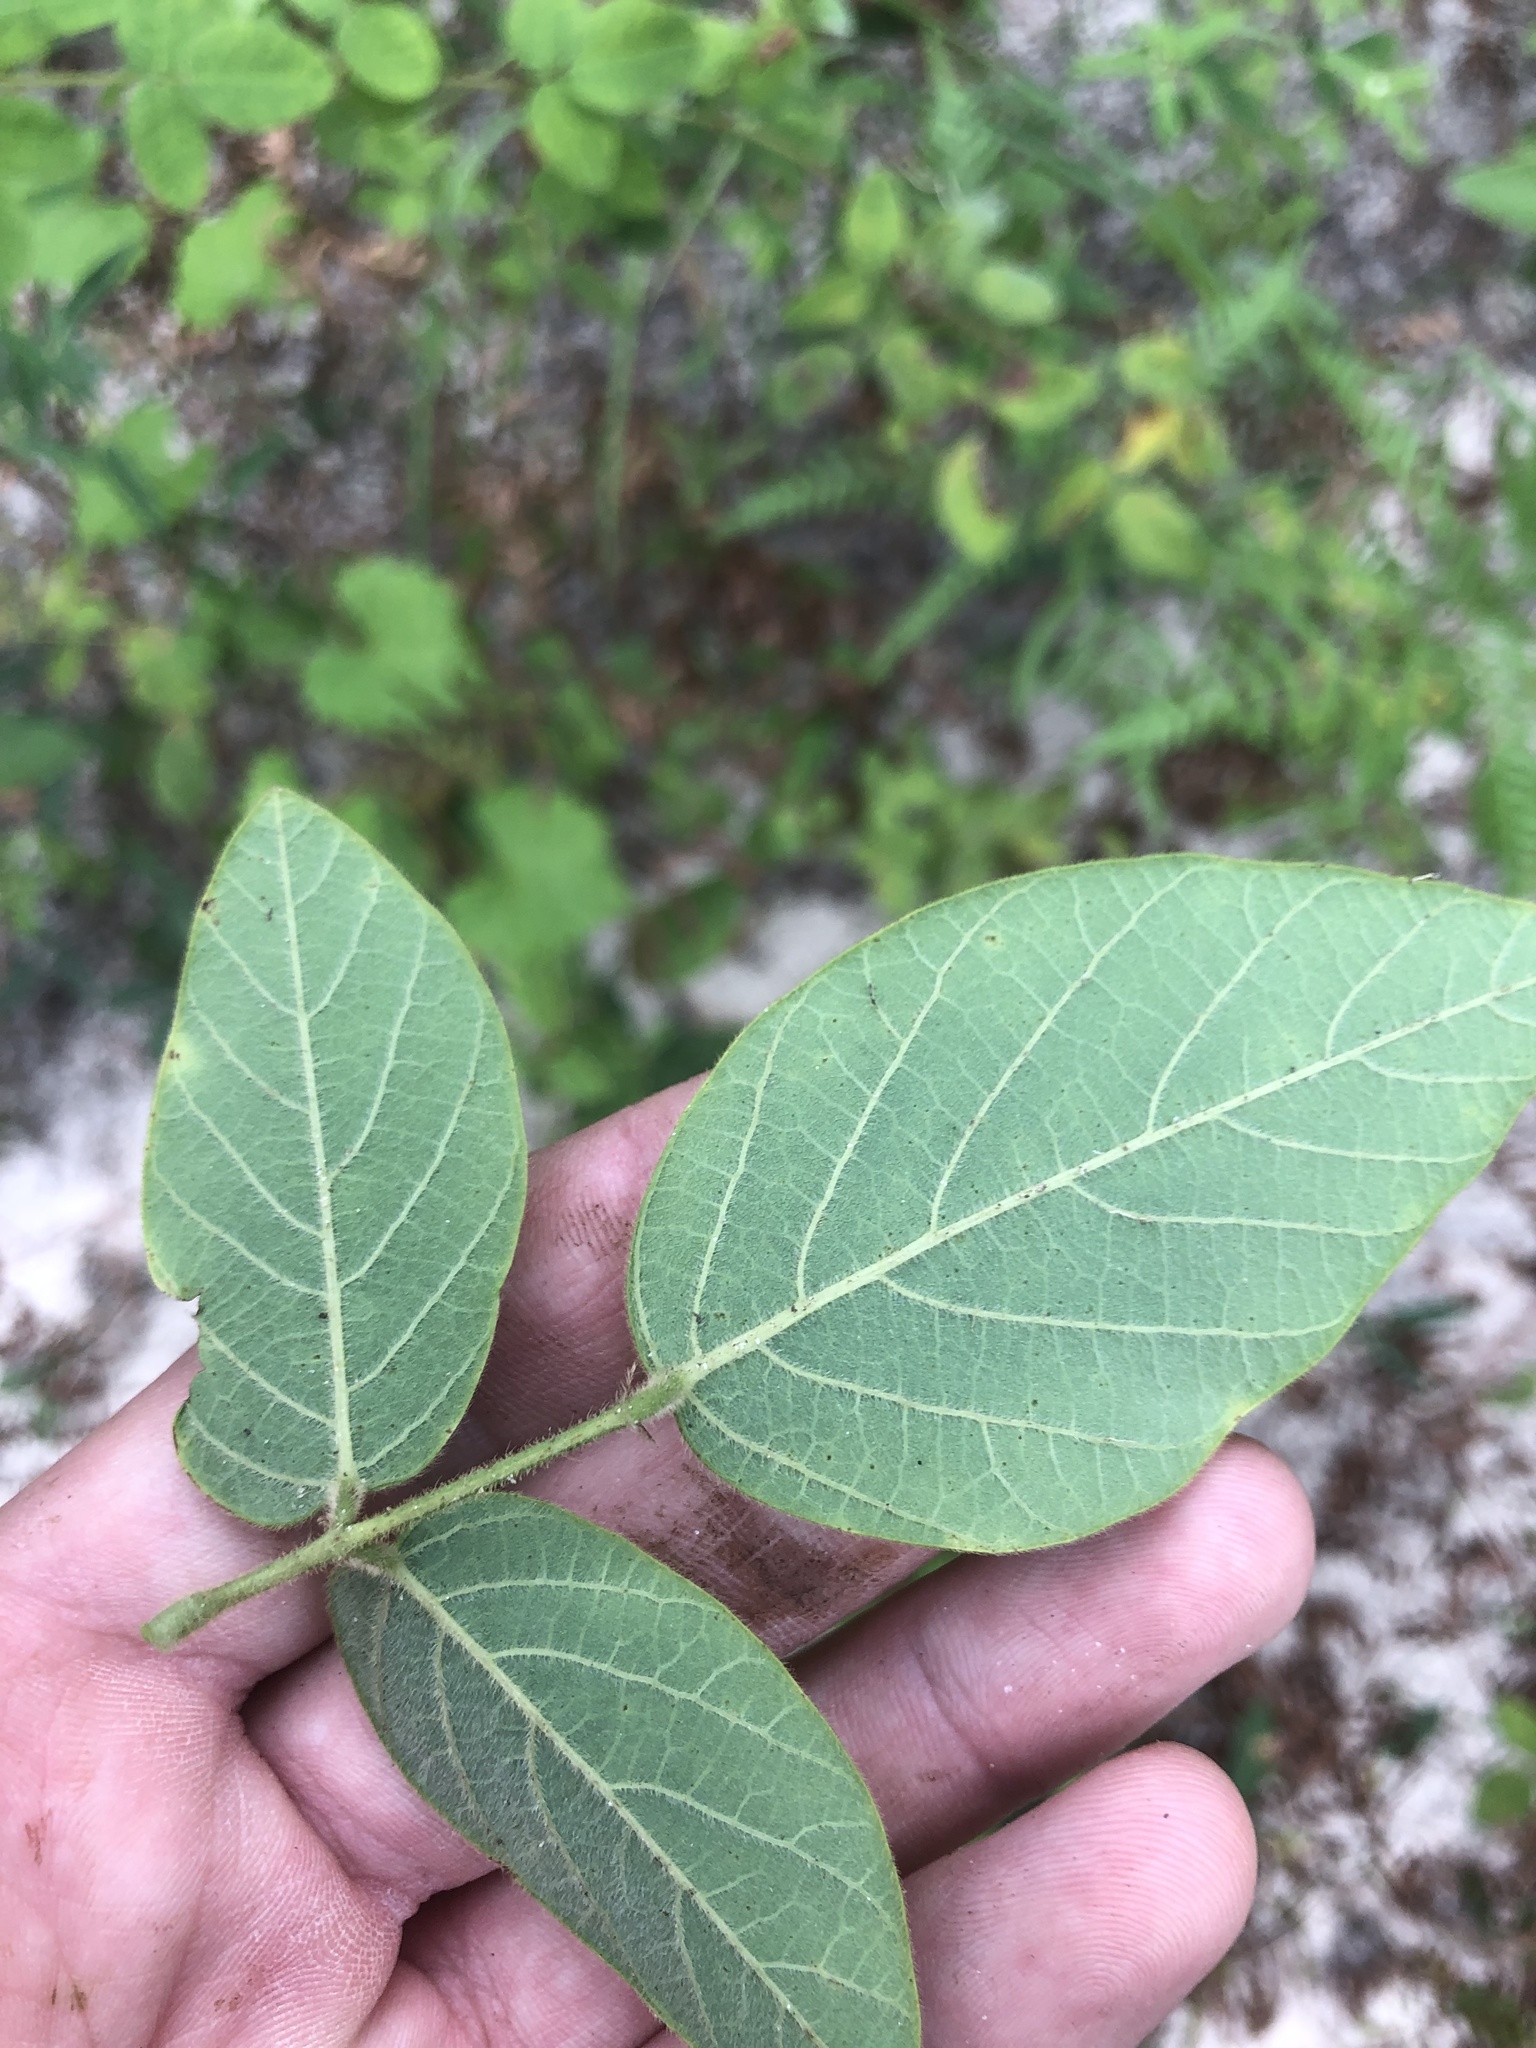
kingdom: Plantae
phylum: Tracheophyta
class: Magnoliopsida
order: Fabales
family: Fabaceae
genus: Desmodium
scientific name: Desmodium nuttallii
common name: Nuttall's tick trefoil
